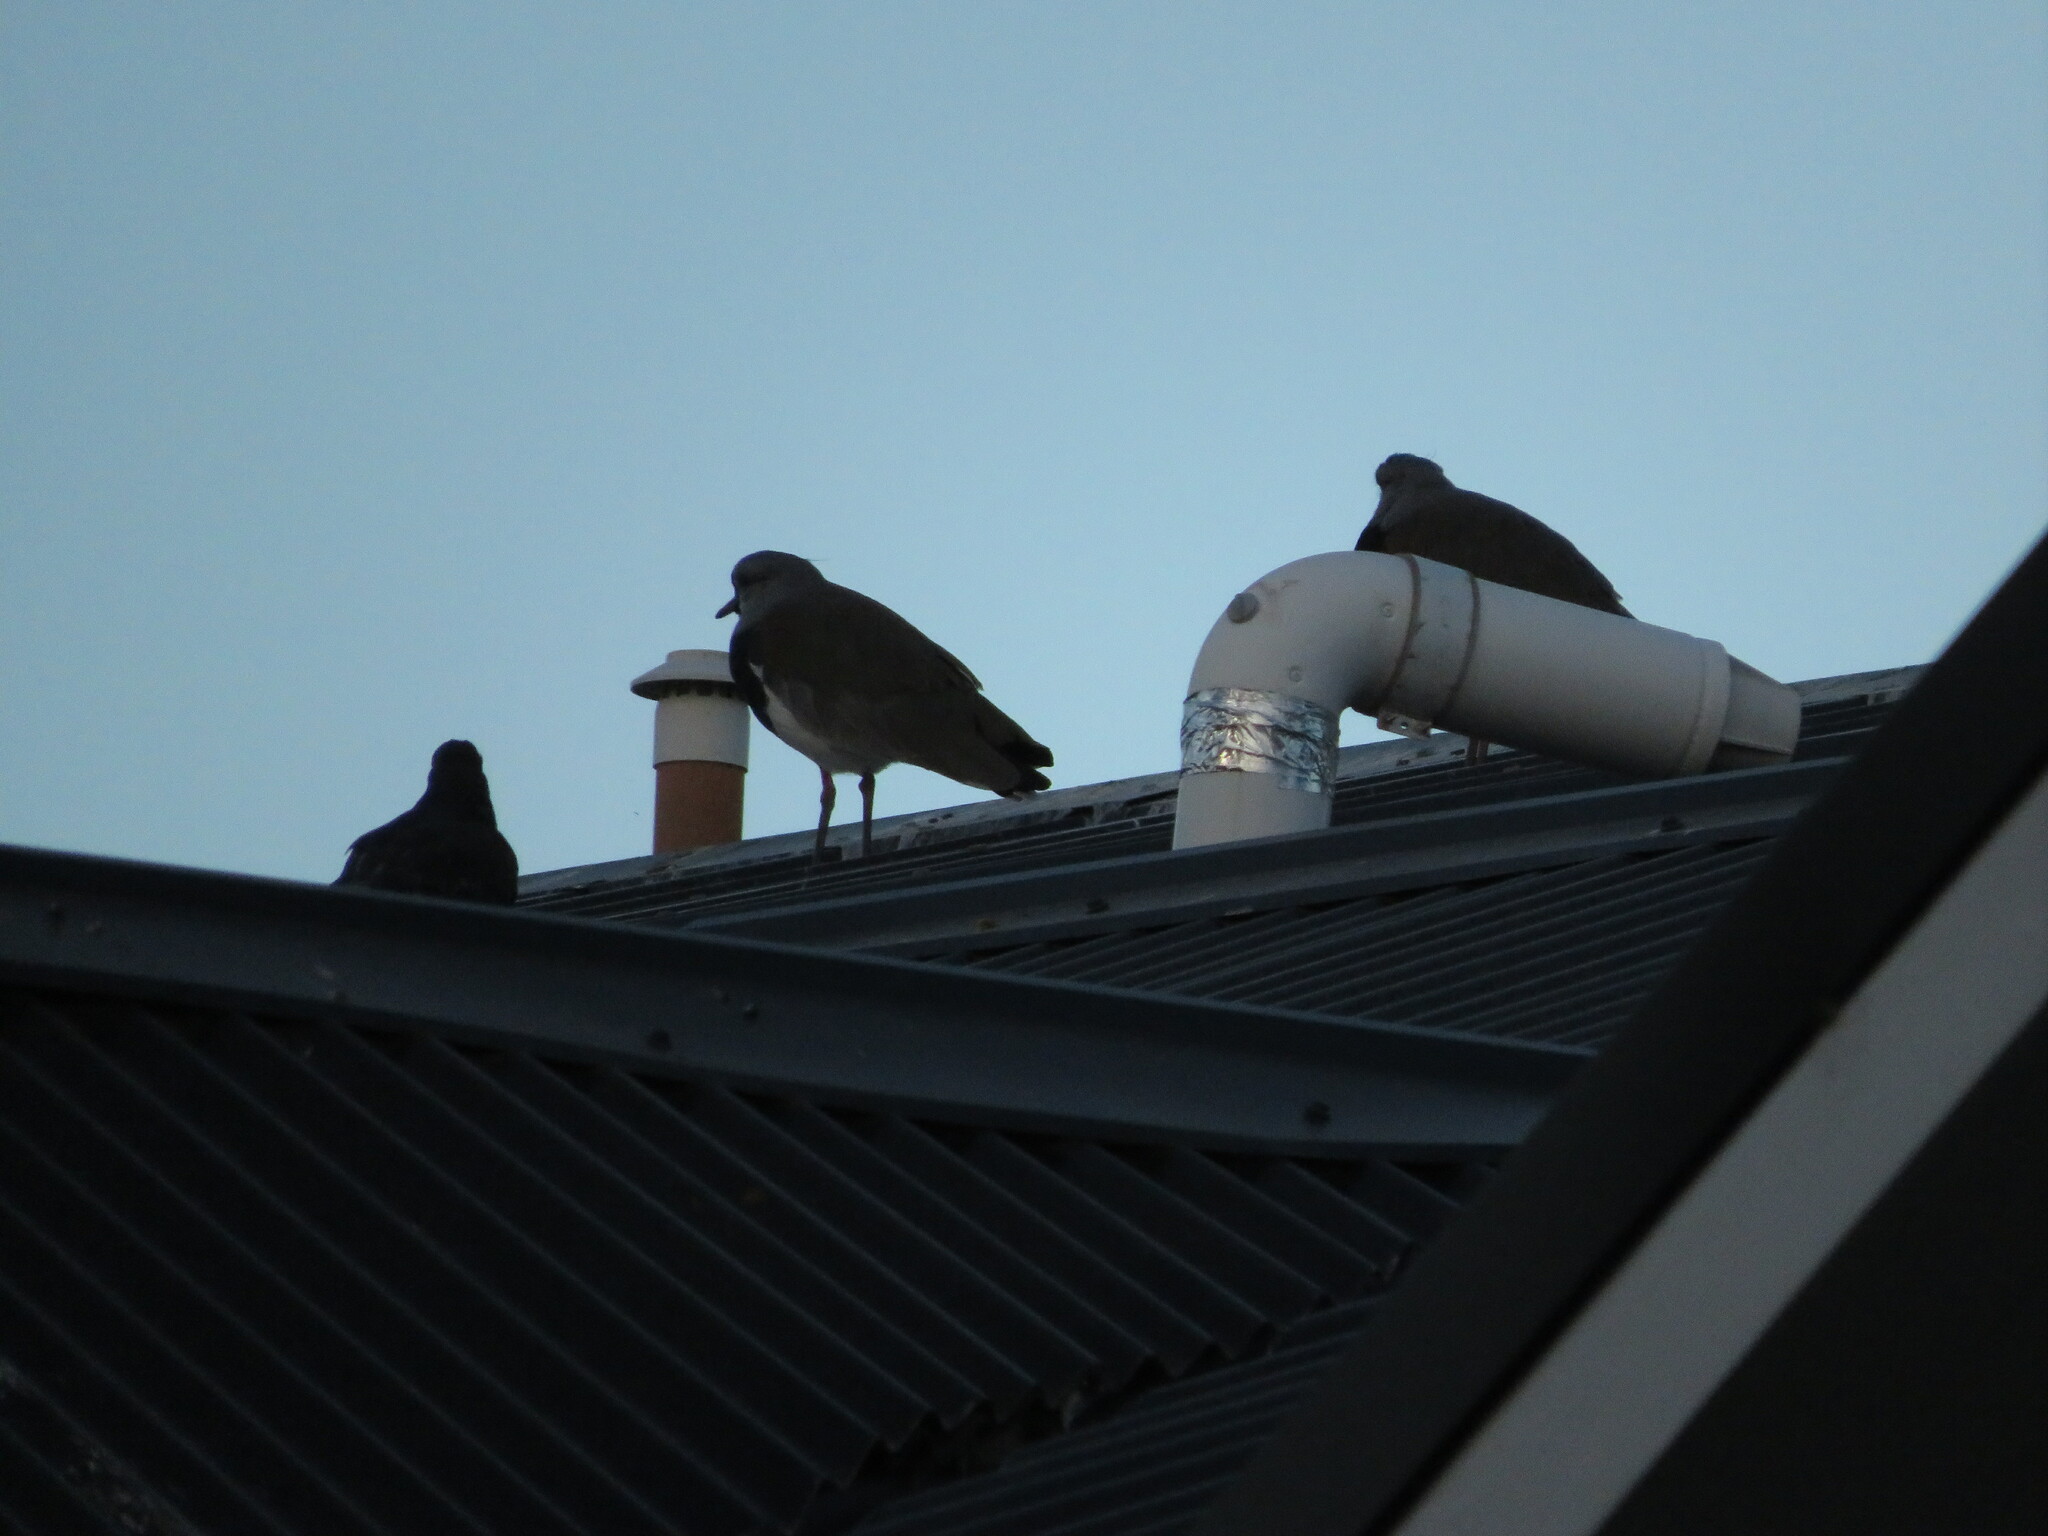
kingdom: Animalia
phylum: Chordata
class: Aves
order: Charadriiformes
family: Charadriidae
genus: Vanellus
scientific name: Vanellus chilensis
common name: Southern lapwing
